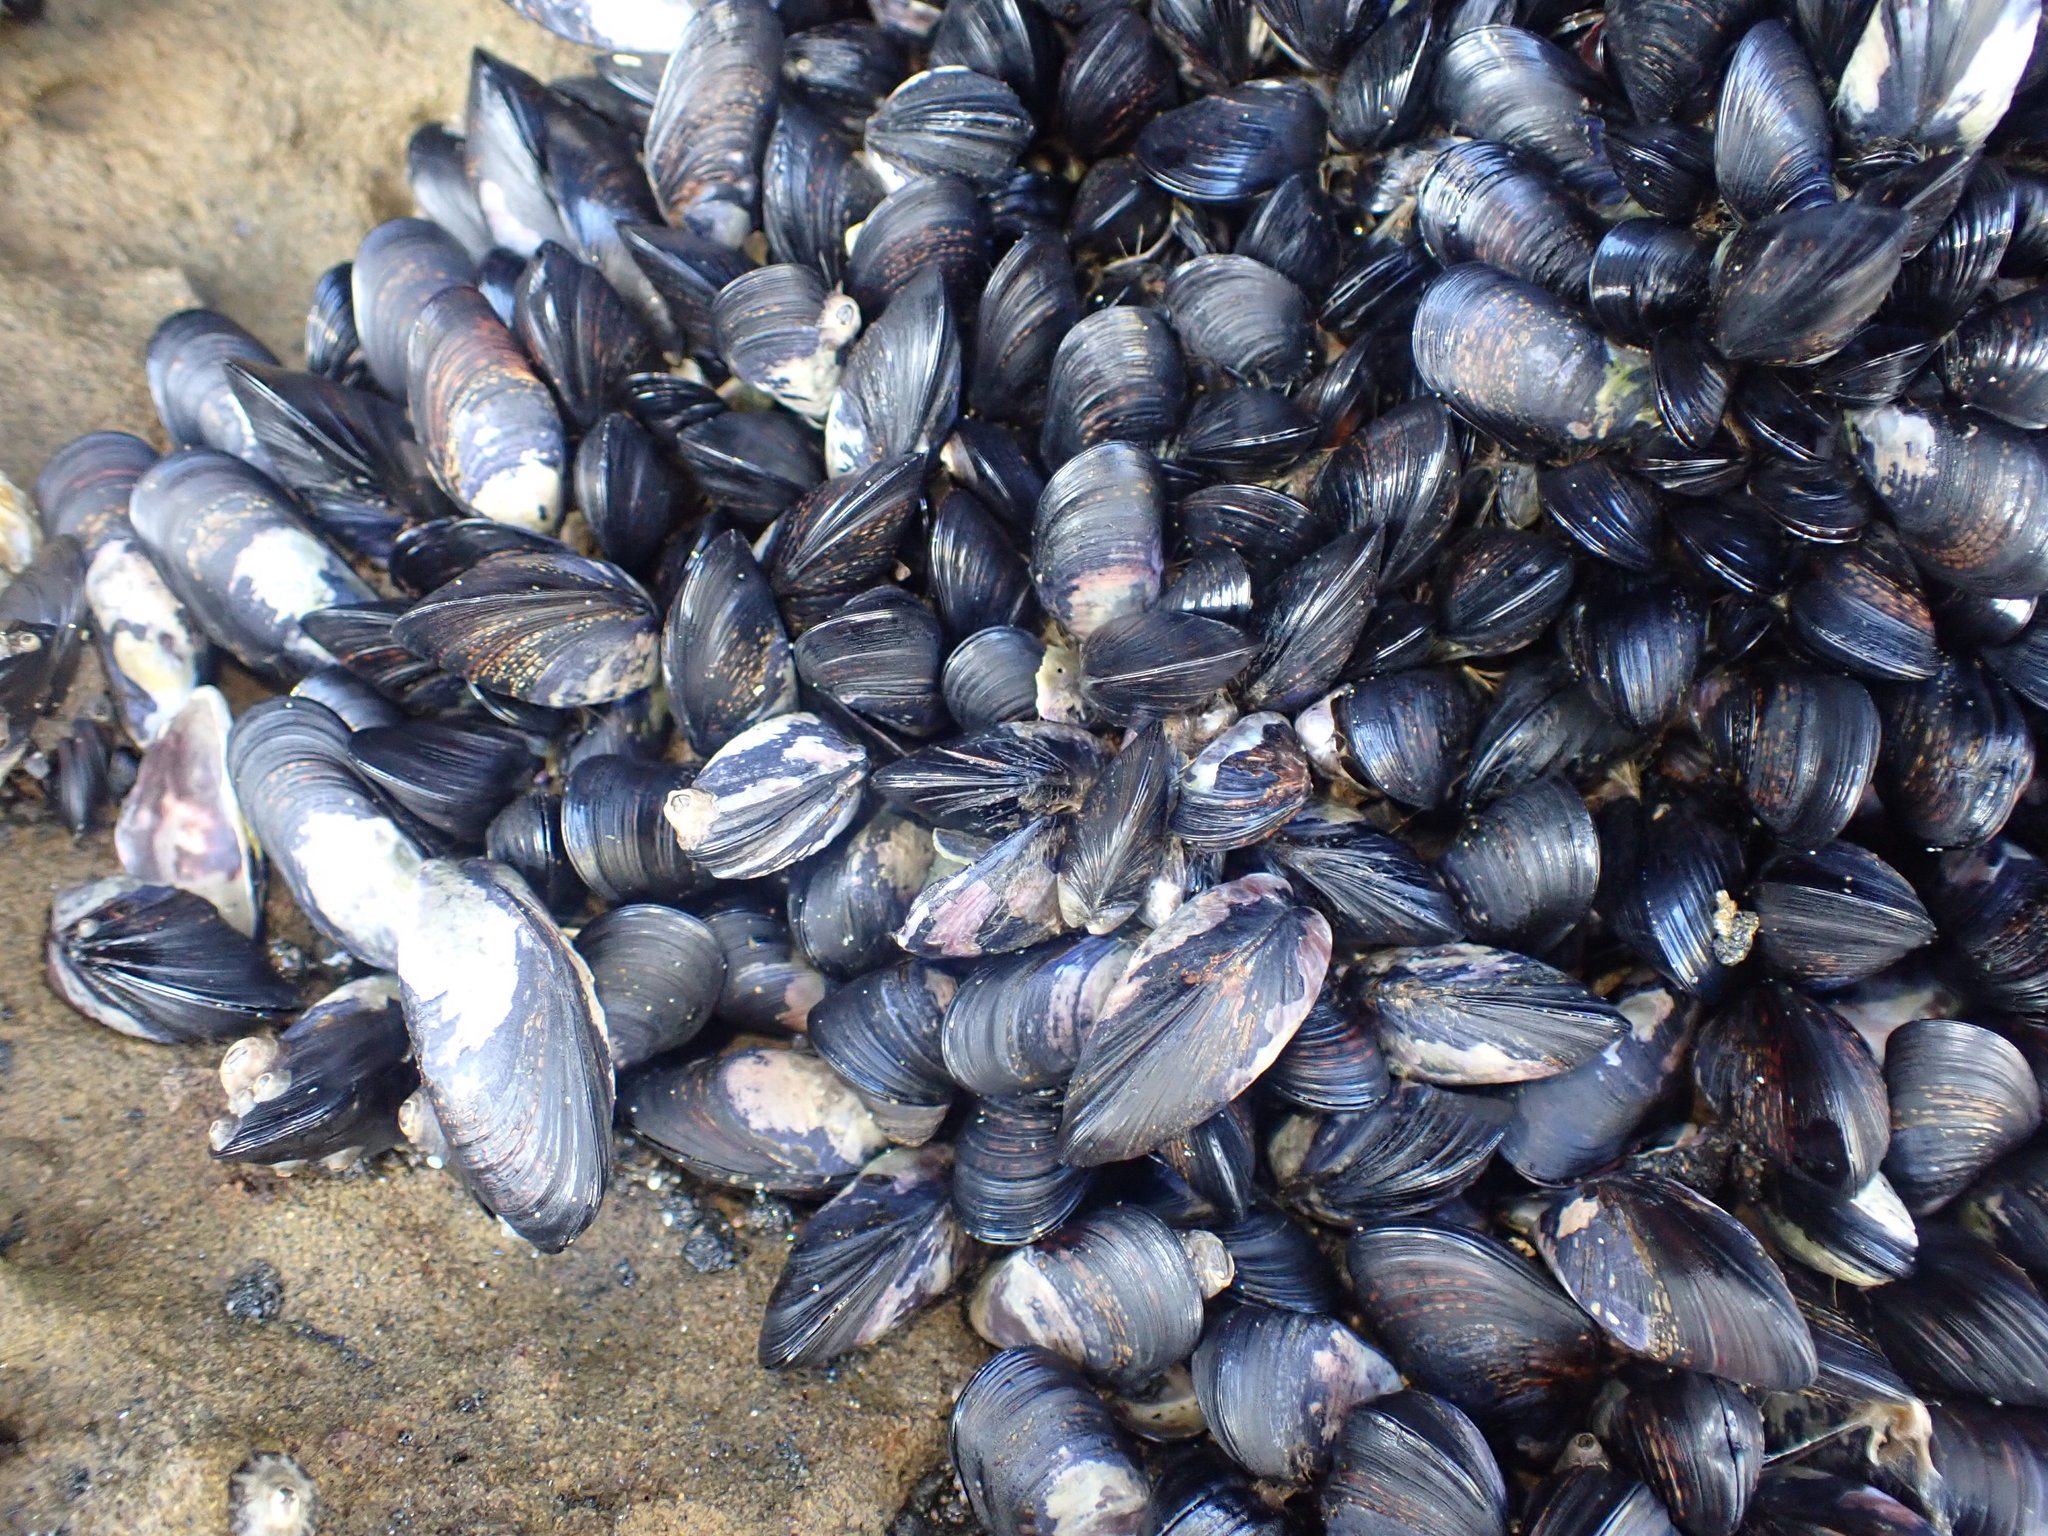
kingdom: Animalia
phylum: Mollusca
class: Bivalvia
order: Mytilida
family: Mytilidae
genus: Xenostrobus
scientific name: Xenostrobus neozelanicus
